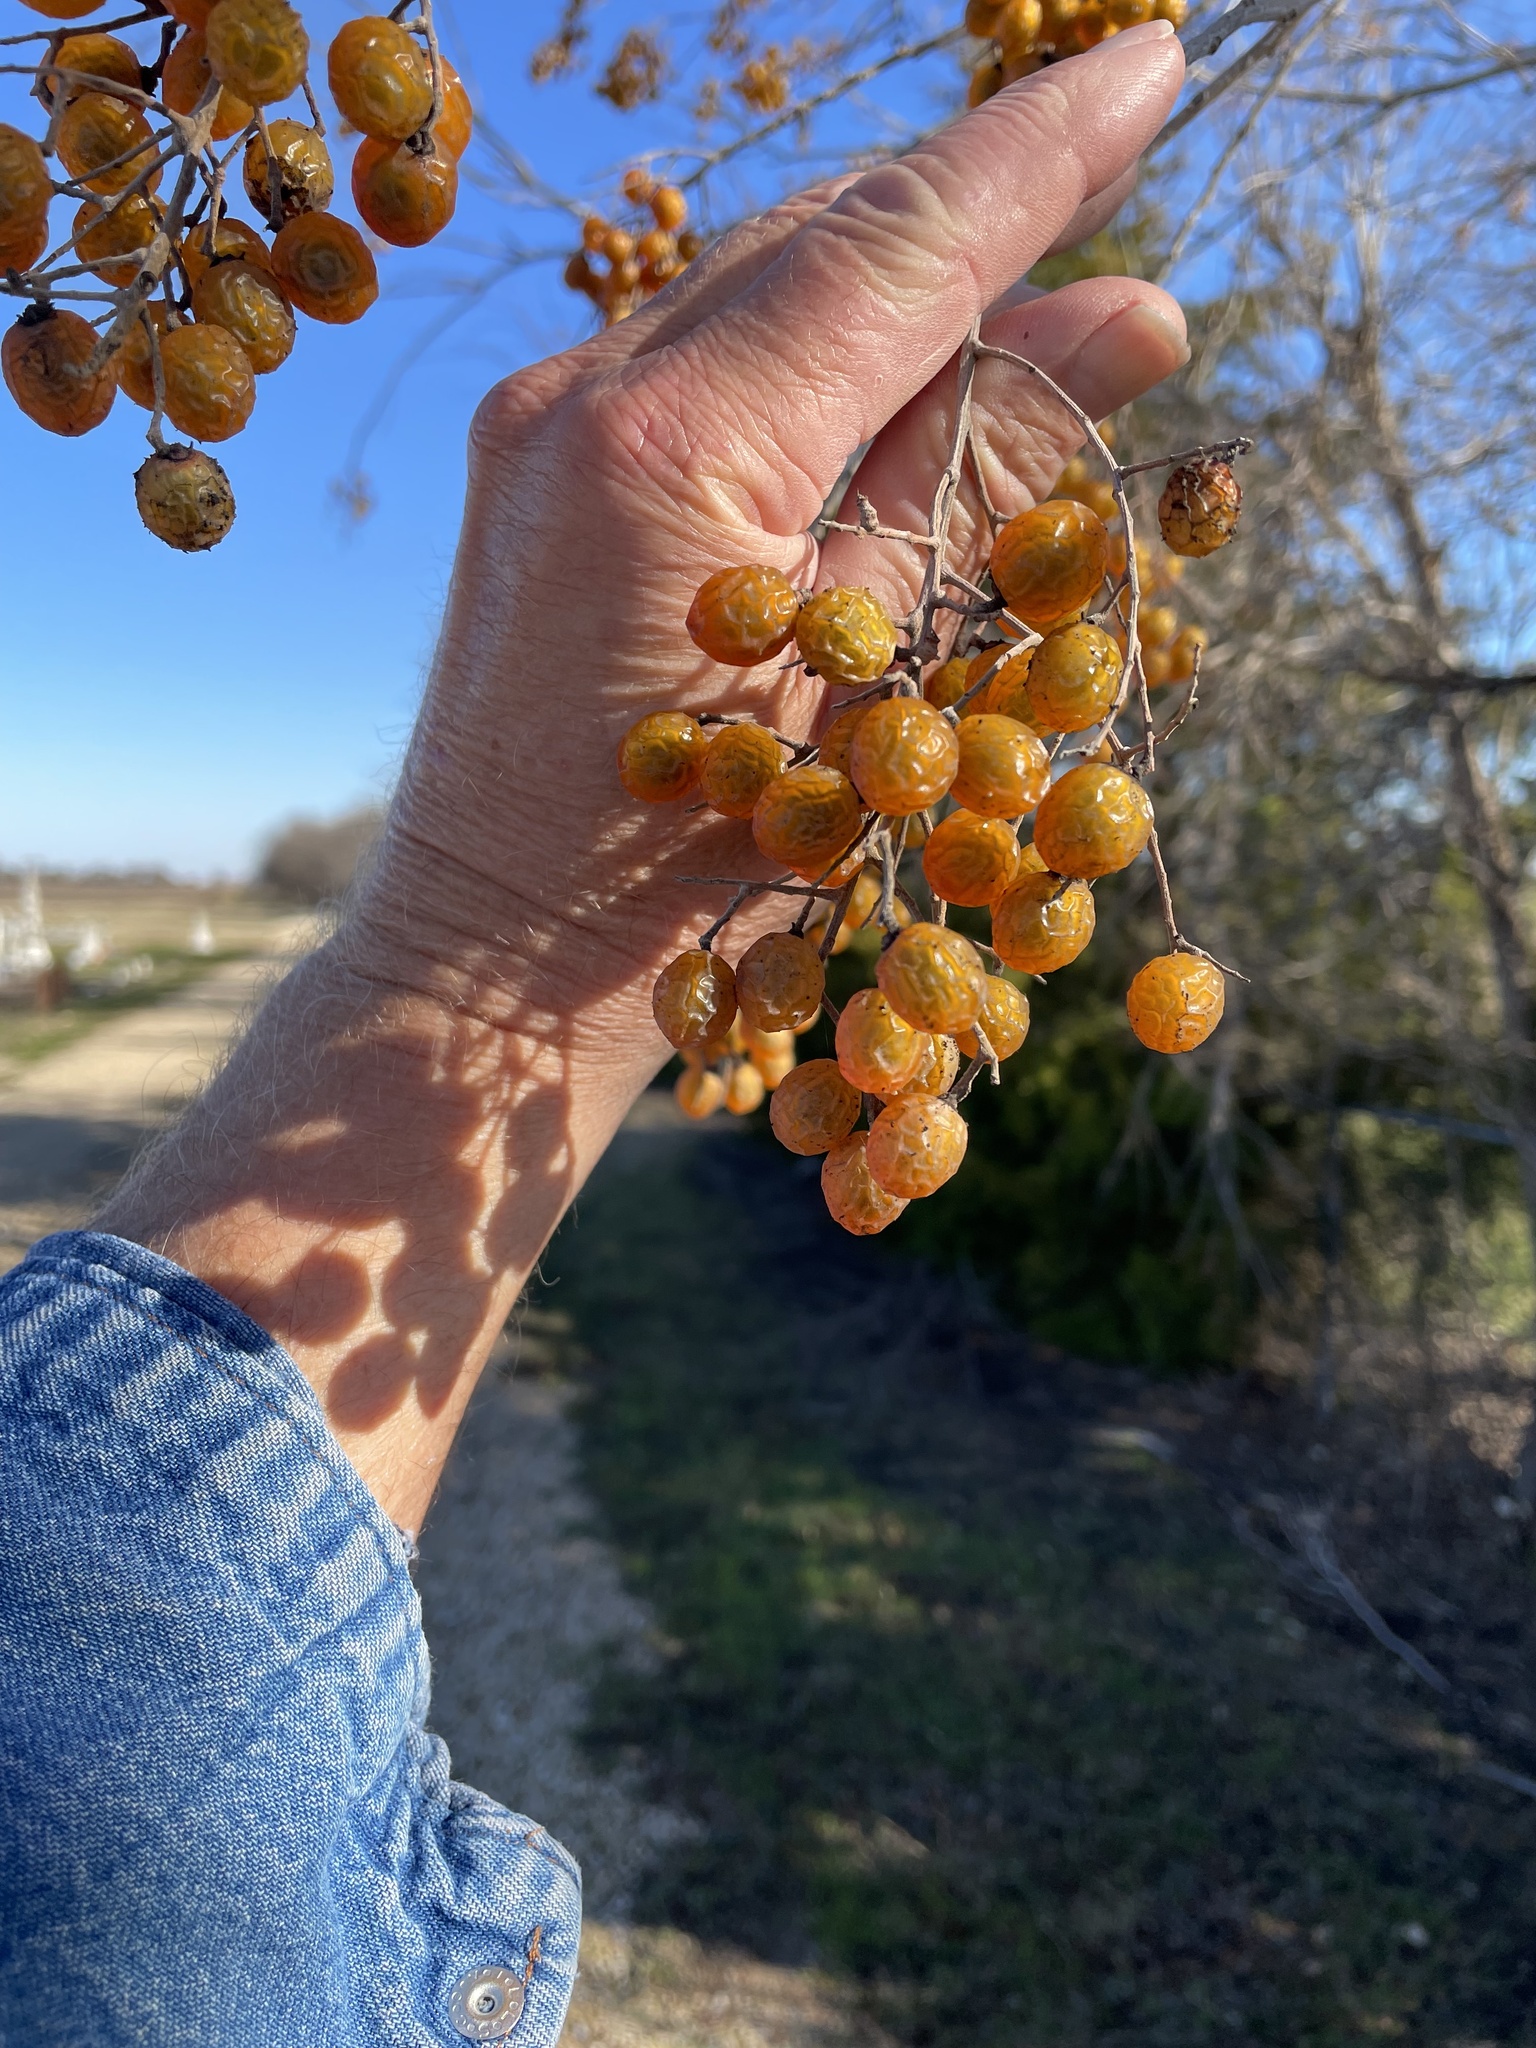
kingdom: Plantae
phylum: Tracheophyta
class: Magnoliopsida
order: Sapindales
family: Sapindaceae
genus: Sapindus
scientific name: Sapindus drummondii
